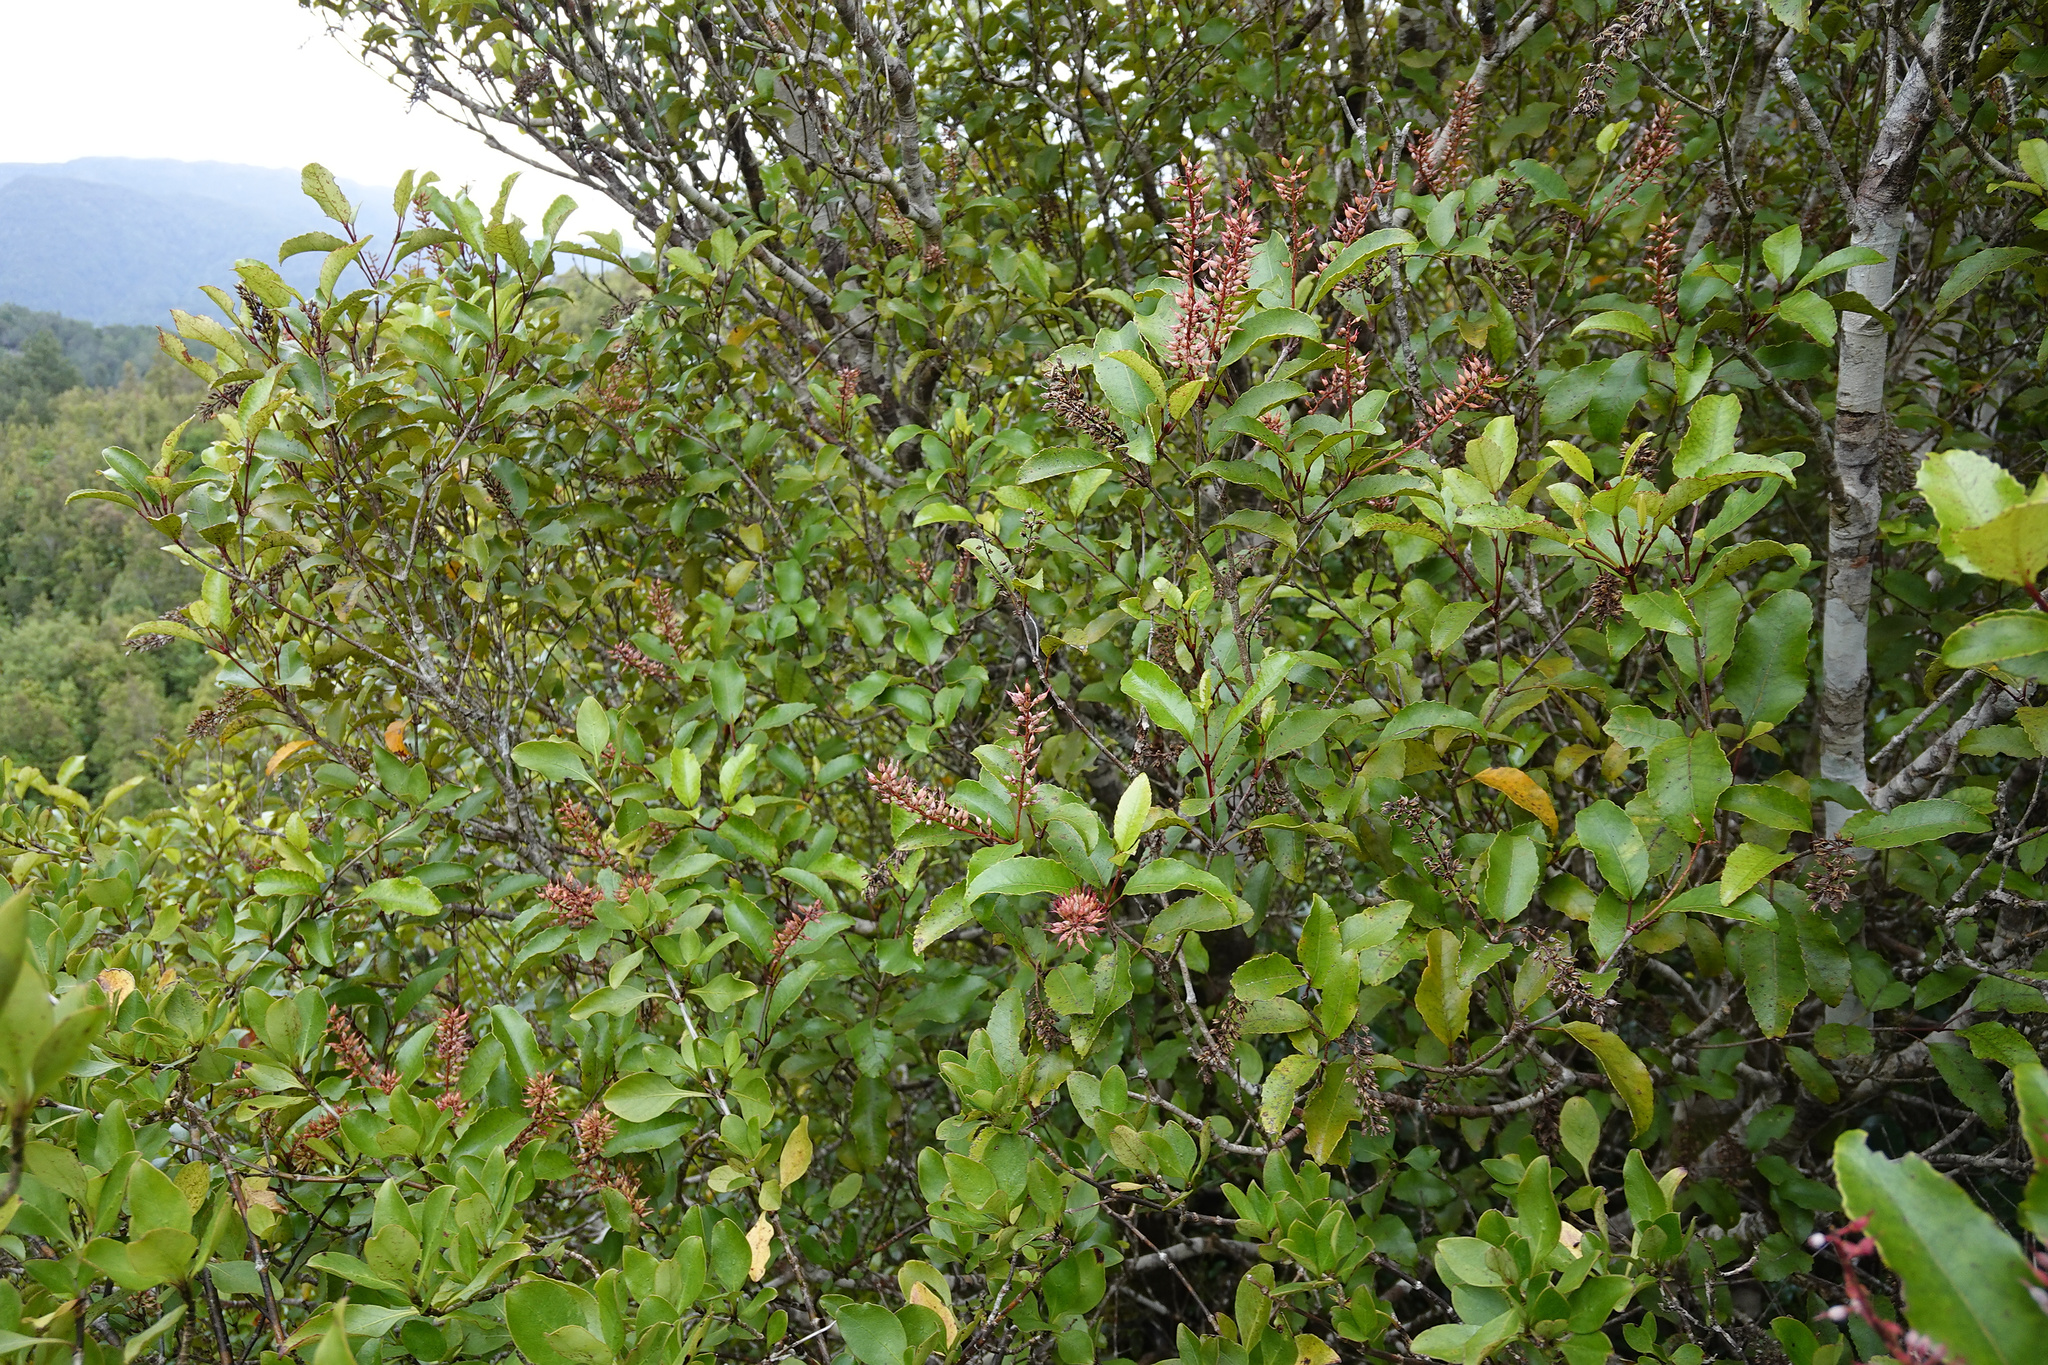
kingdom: Plantae
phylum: Tracheophyta
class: Magnoliopsida
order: Oxalidales
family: Cunoniaceae
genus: Pterophylla
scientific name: Pterophylla racemosa
